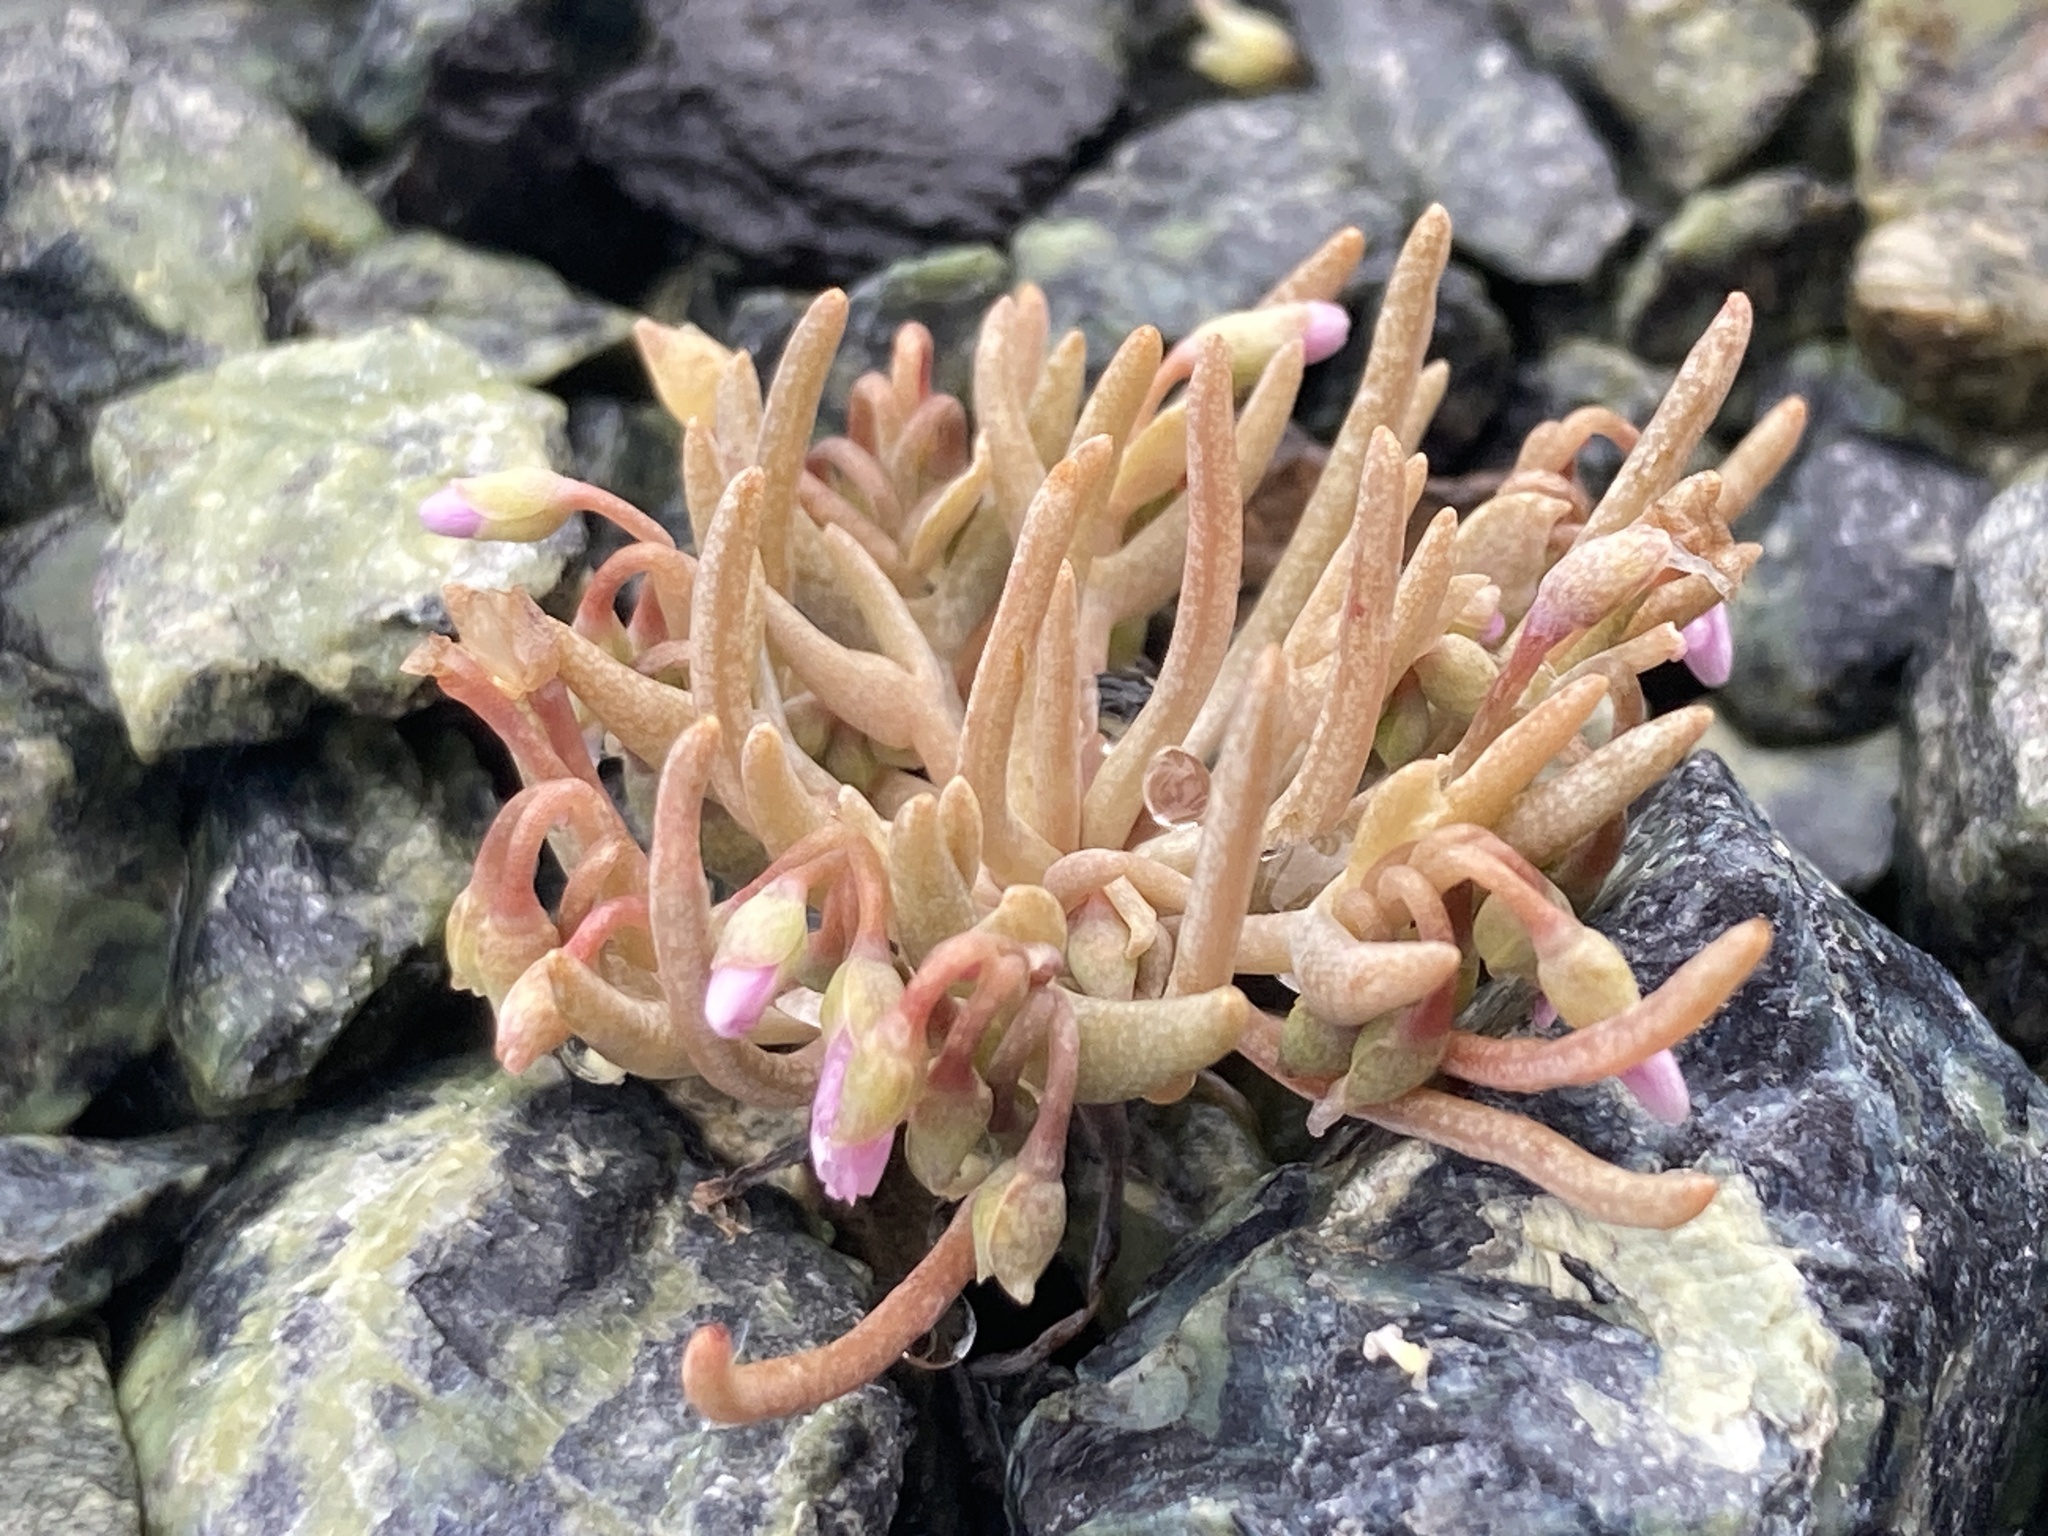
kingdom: Plantae
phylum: Tracheophyta
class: Magnoliopsida
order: Caryophyllales
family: Montiaceae
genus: Claytonia
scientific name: Claytonia exigua
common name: Pale spring beauty
